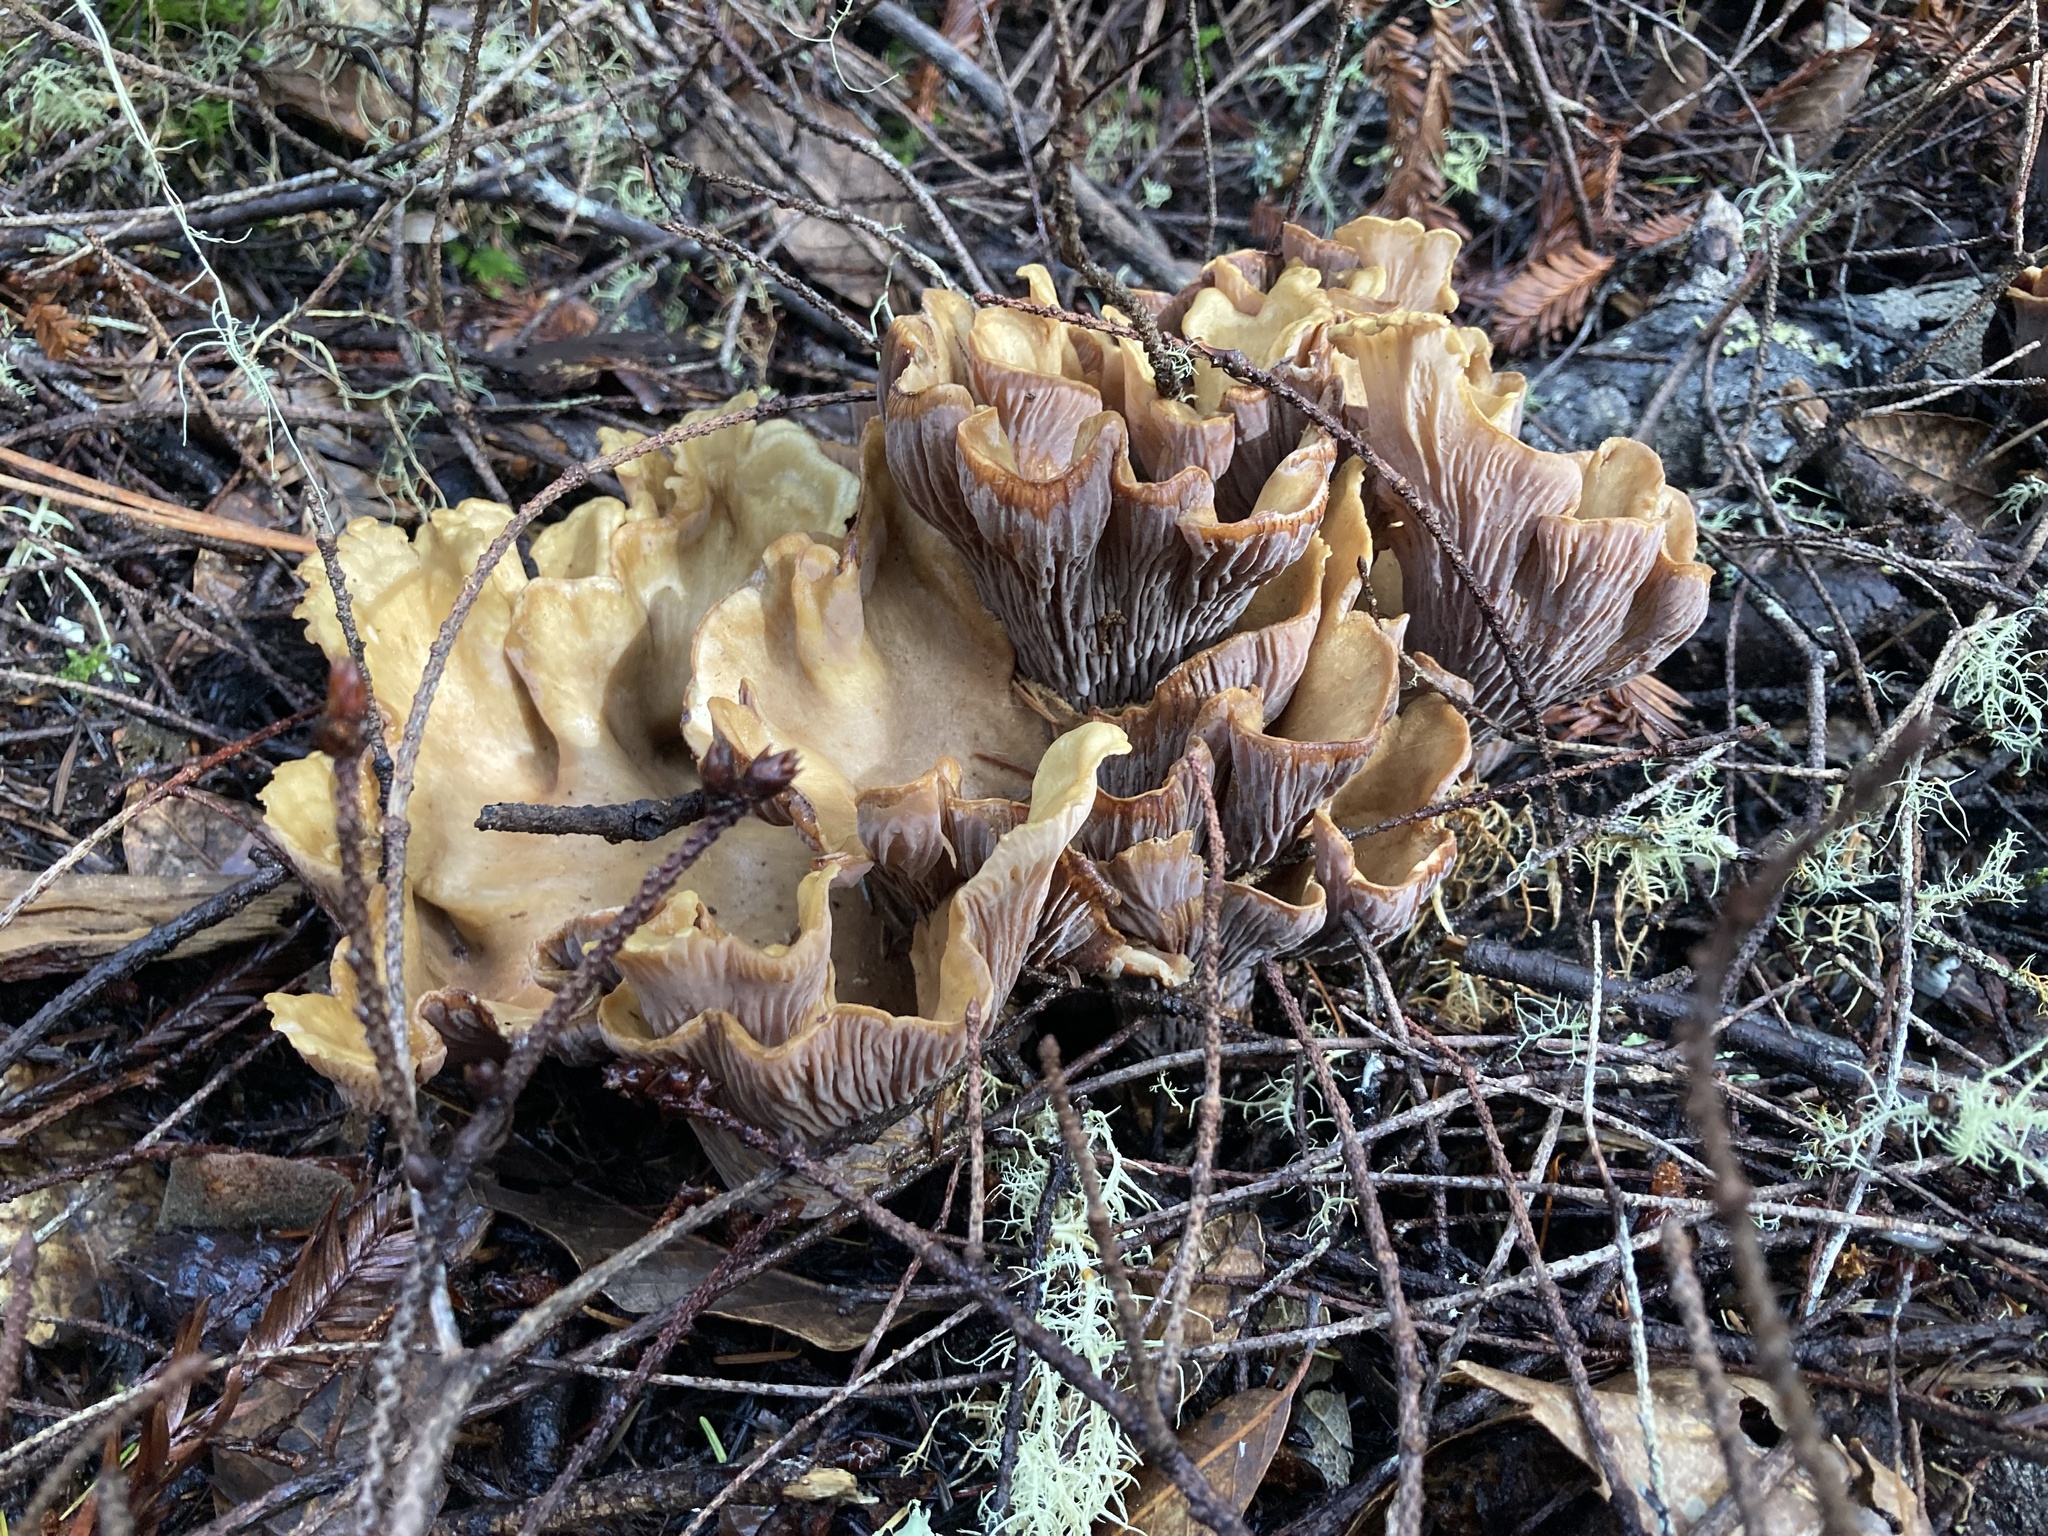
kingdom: Fungi
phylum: Basidiomycota
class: Agaricomycetes
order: Gomphales
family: Gomphaceae
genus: Gomphus
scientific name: Gomphus clavatus
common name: Pig's ear
